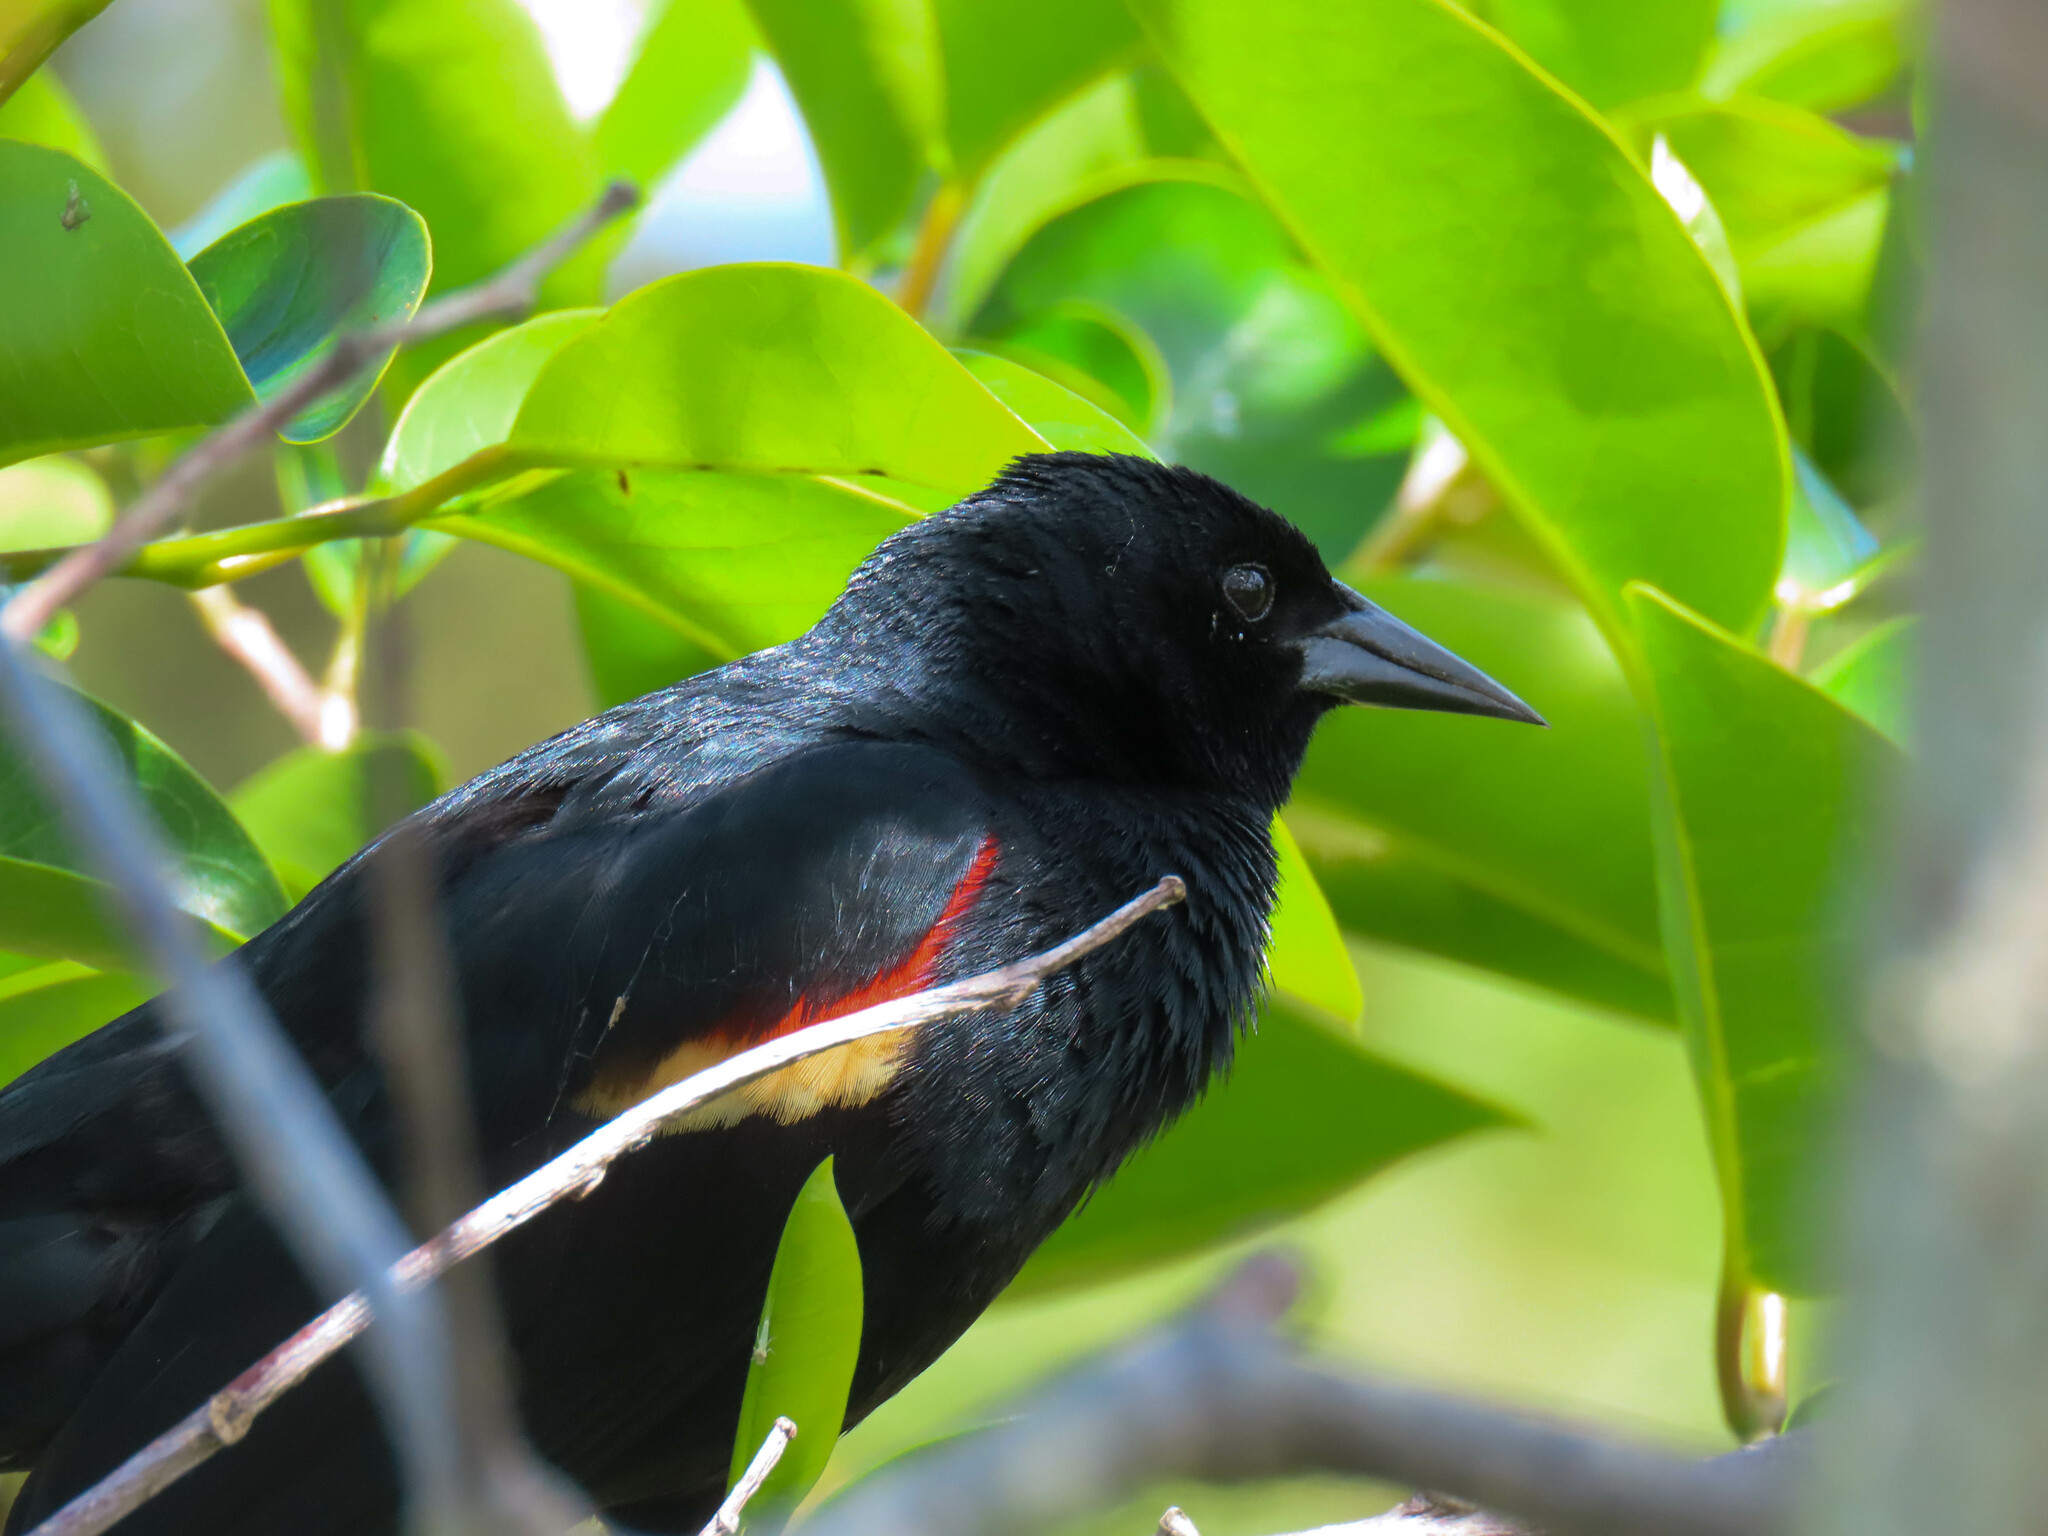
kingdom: Animalia
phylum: Chordata
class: Aves
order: Passeriformes
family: Icteridae
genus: Agelaius
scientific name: Agelaius phoeniceus
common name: Red-winged blackbird
